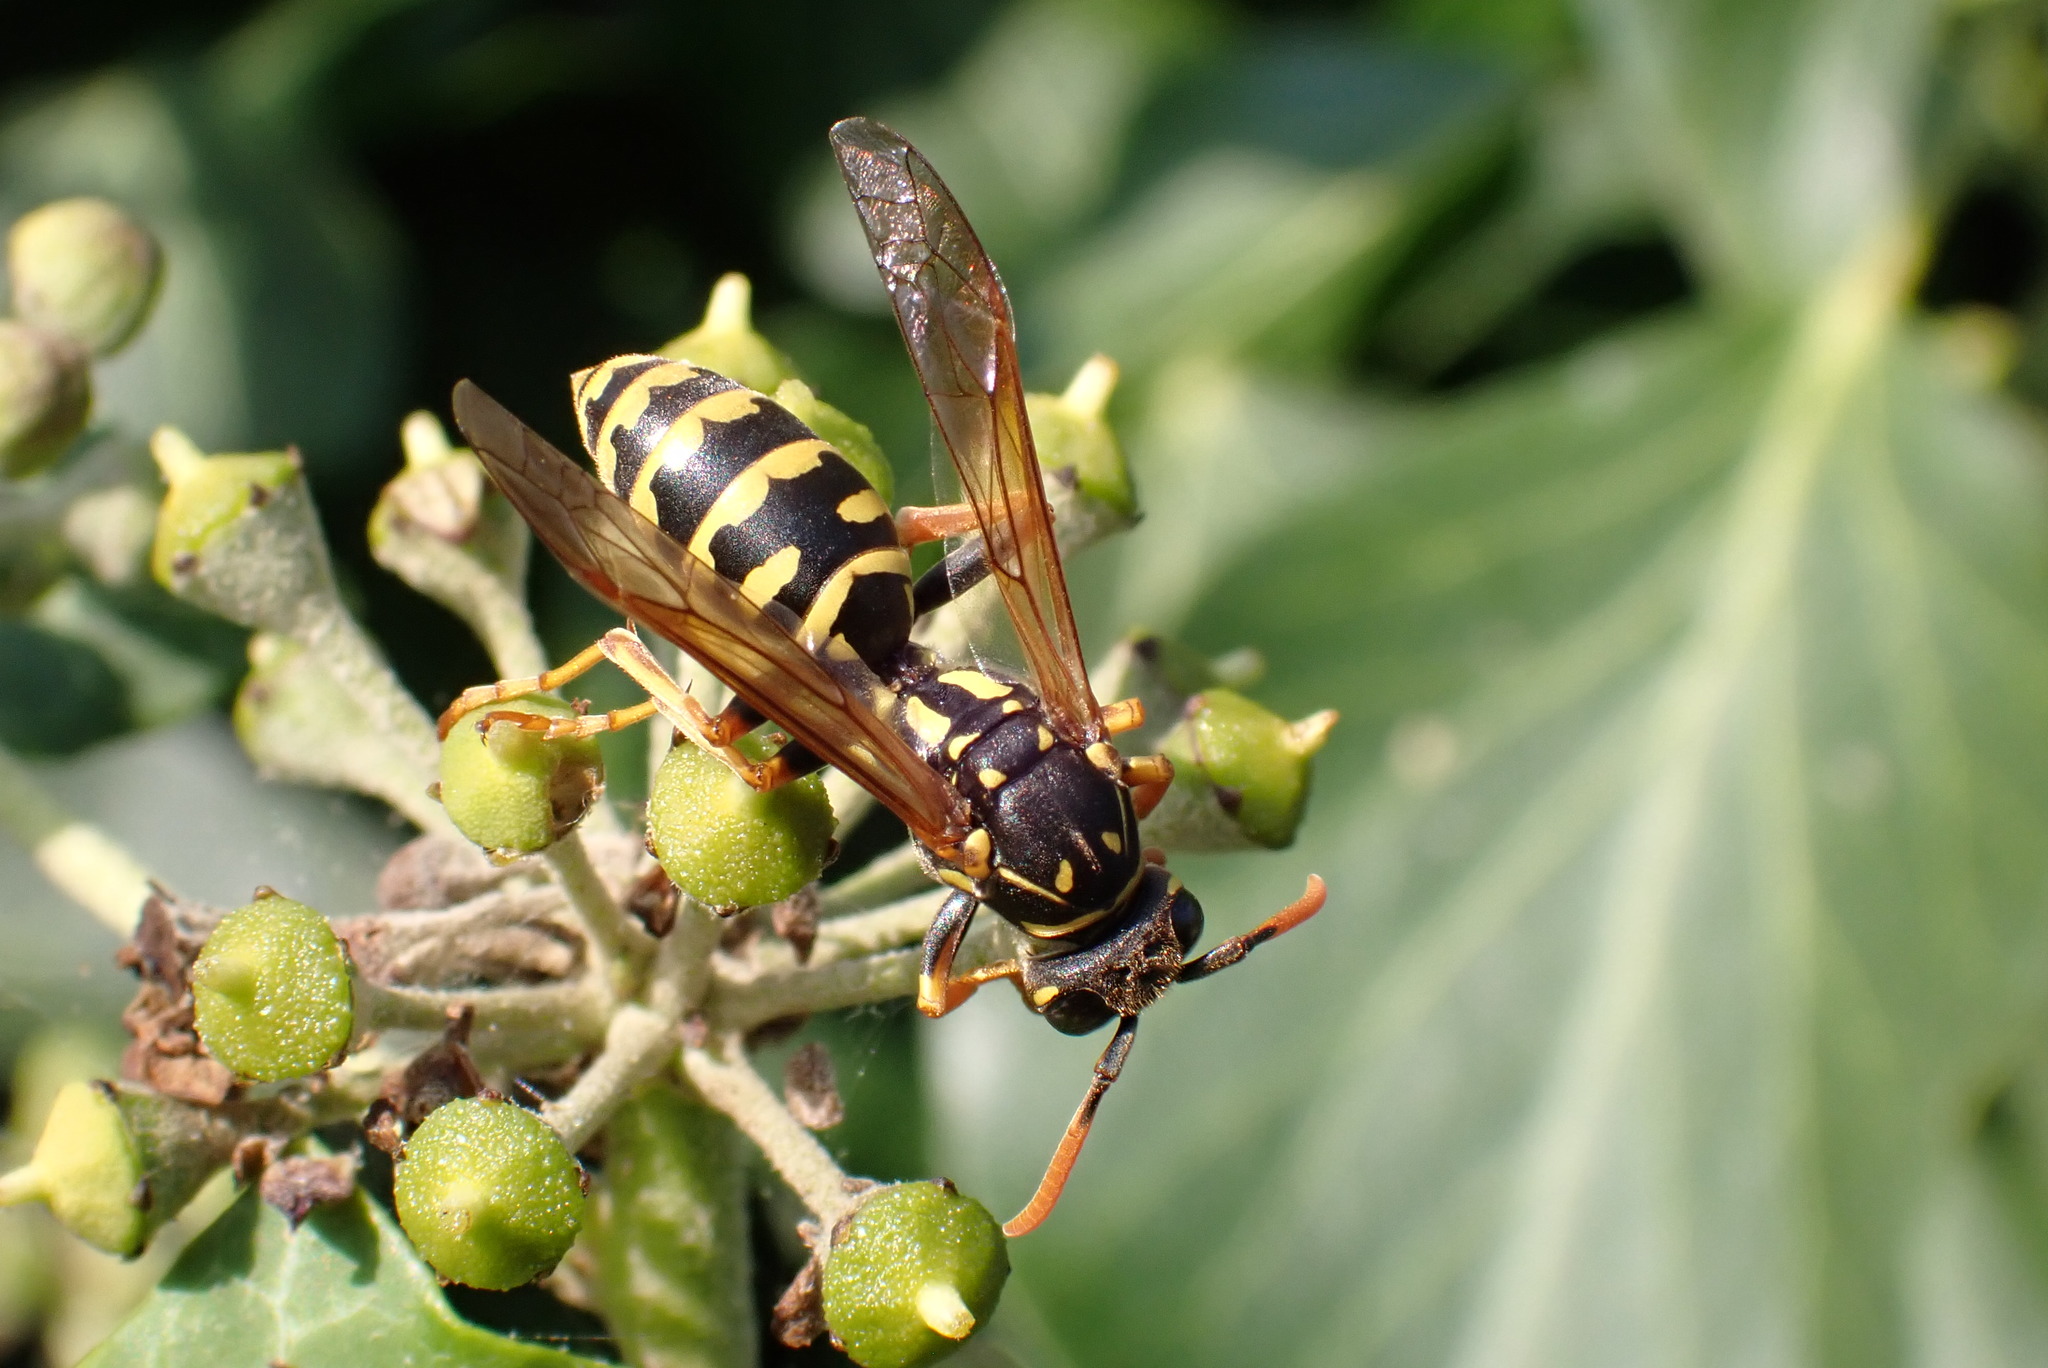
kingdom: Animalia
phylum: Arthropoda
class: Insecta
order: Hymenoptera
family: Eumenidae
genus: Polistes
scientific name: Polistes dominula
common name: Paper wasp
